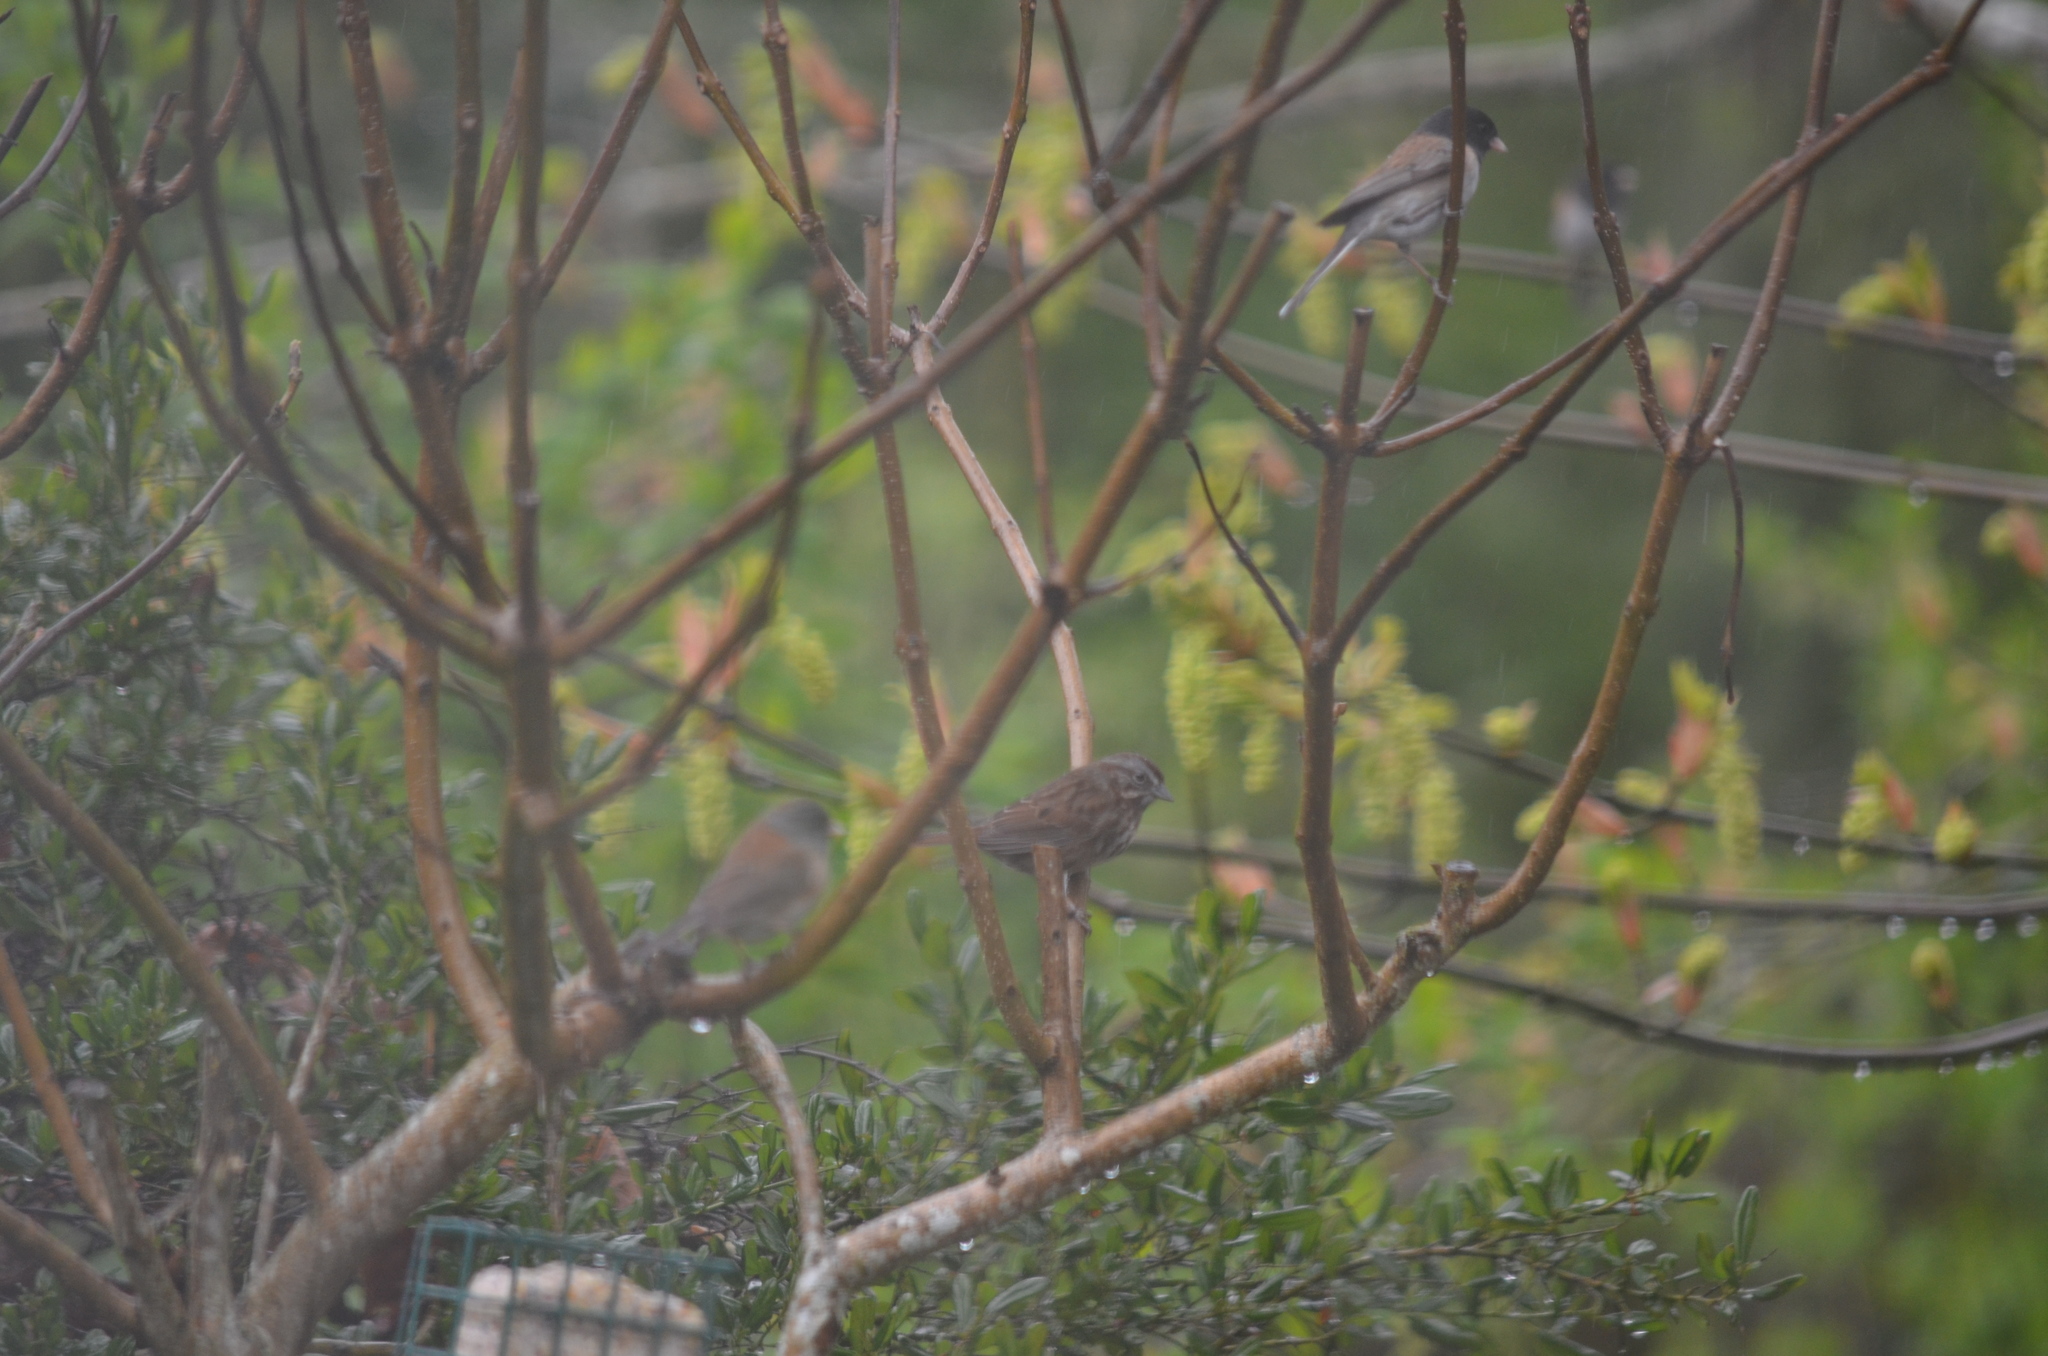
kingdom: Animalia
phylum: Chordata
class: Aves
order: Passeriformes
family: Passerellidae
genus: Melospiza
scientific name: Melospiza melodia
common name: Song sparrow
